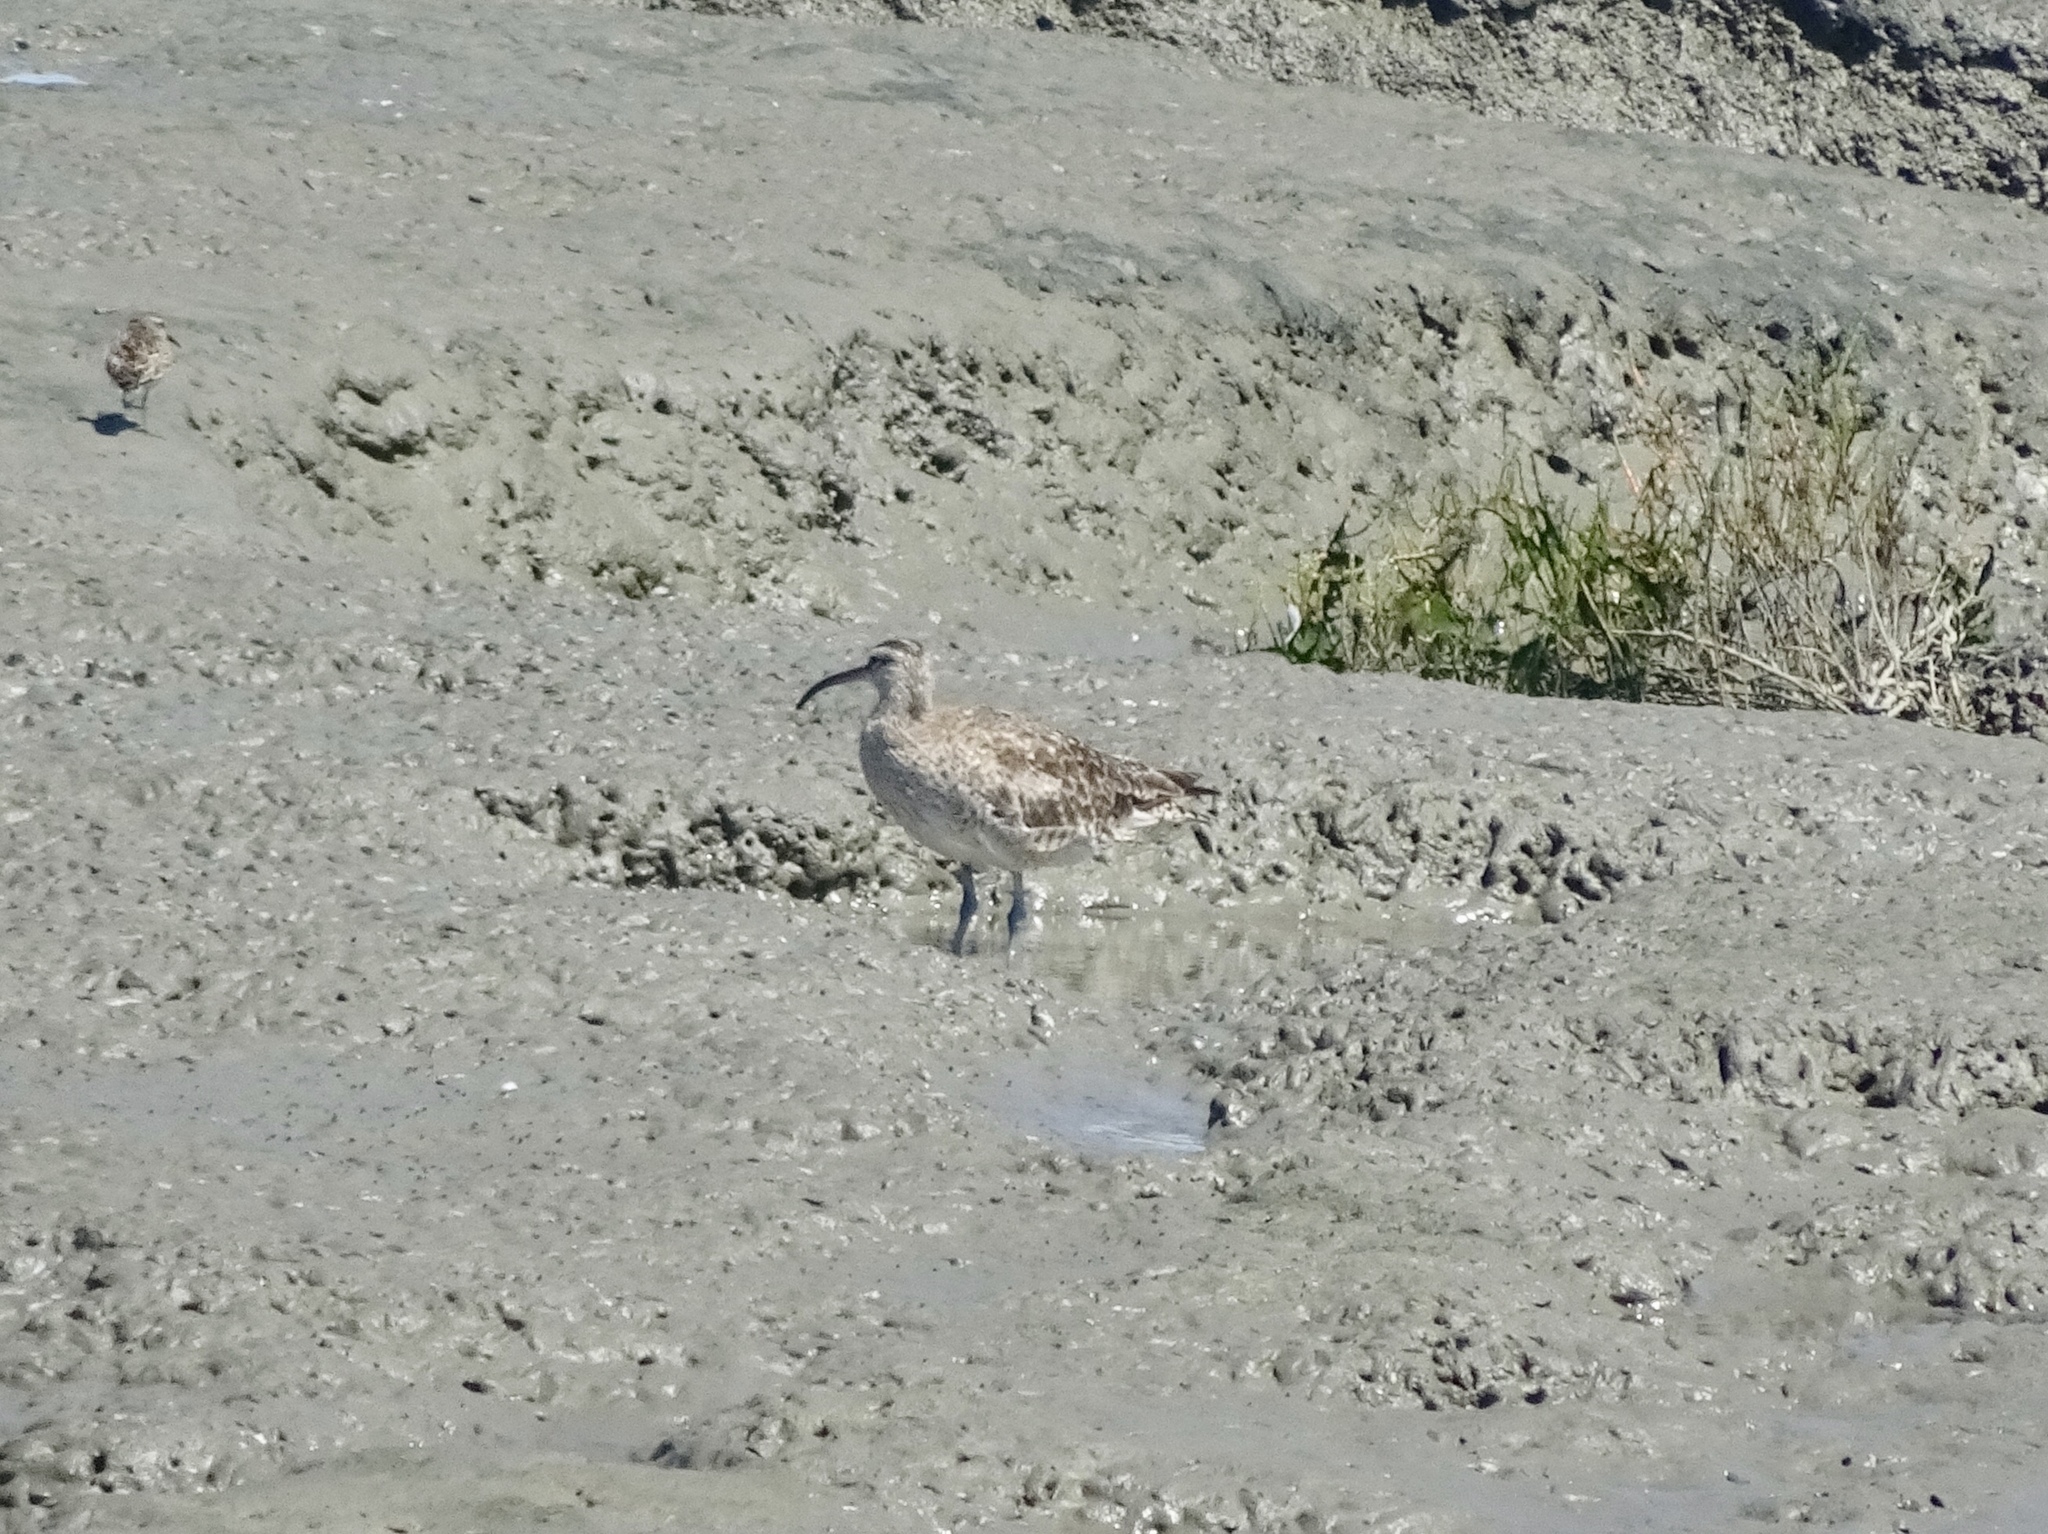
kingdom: Animalia
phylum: Chordata
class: Aves
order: Charadriiformes
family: Scolopacidae
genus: Numenius
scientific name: Numenius phaeopus
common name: Whimbrel
